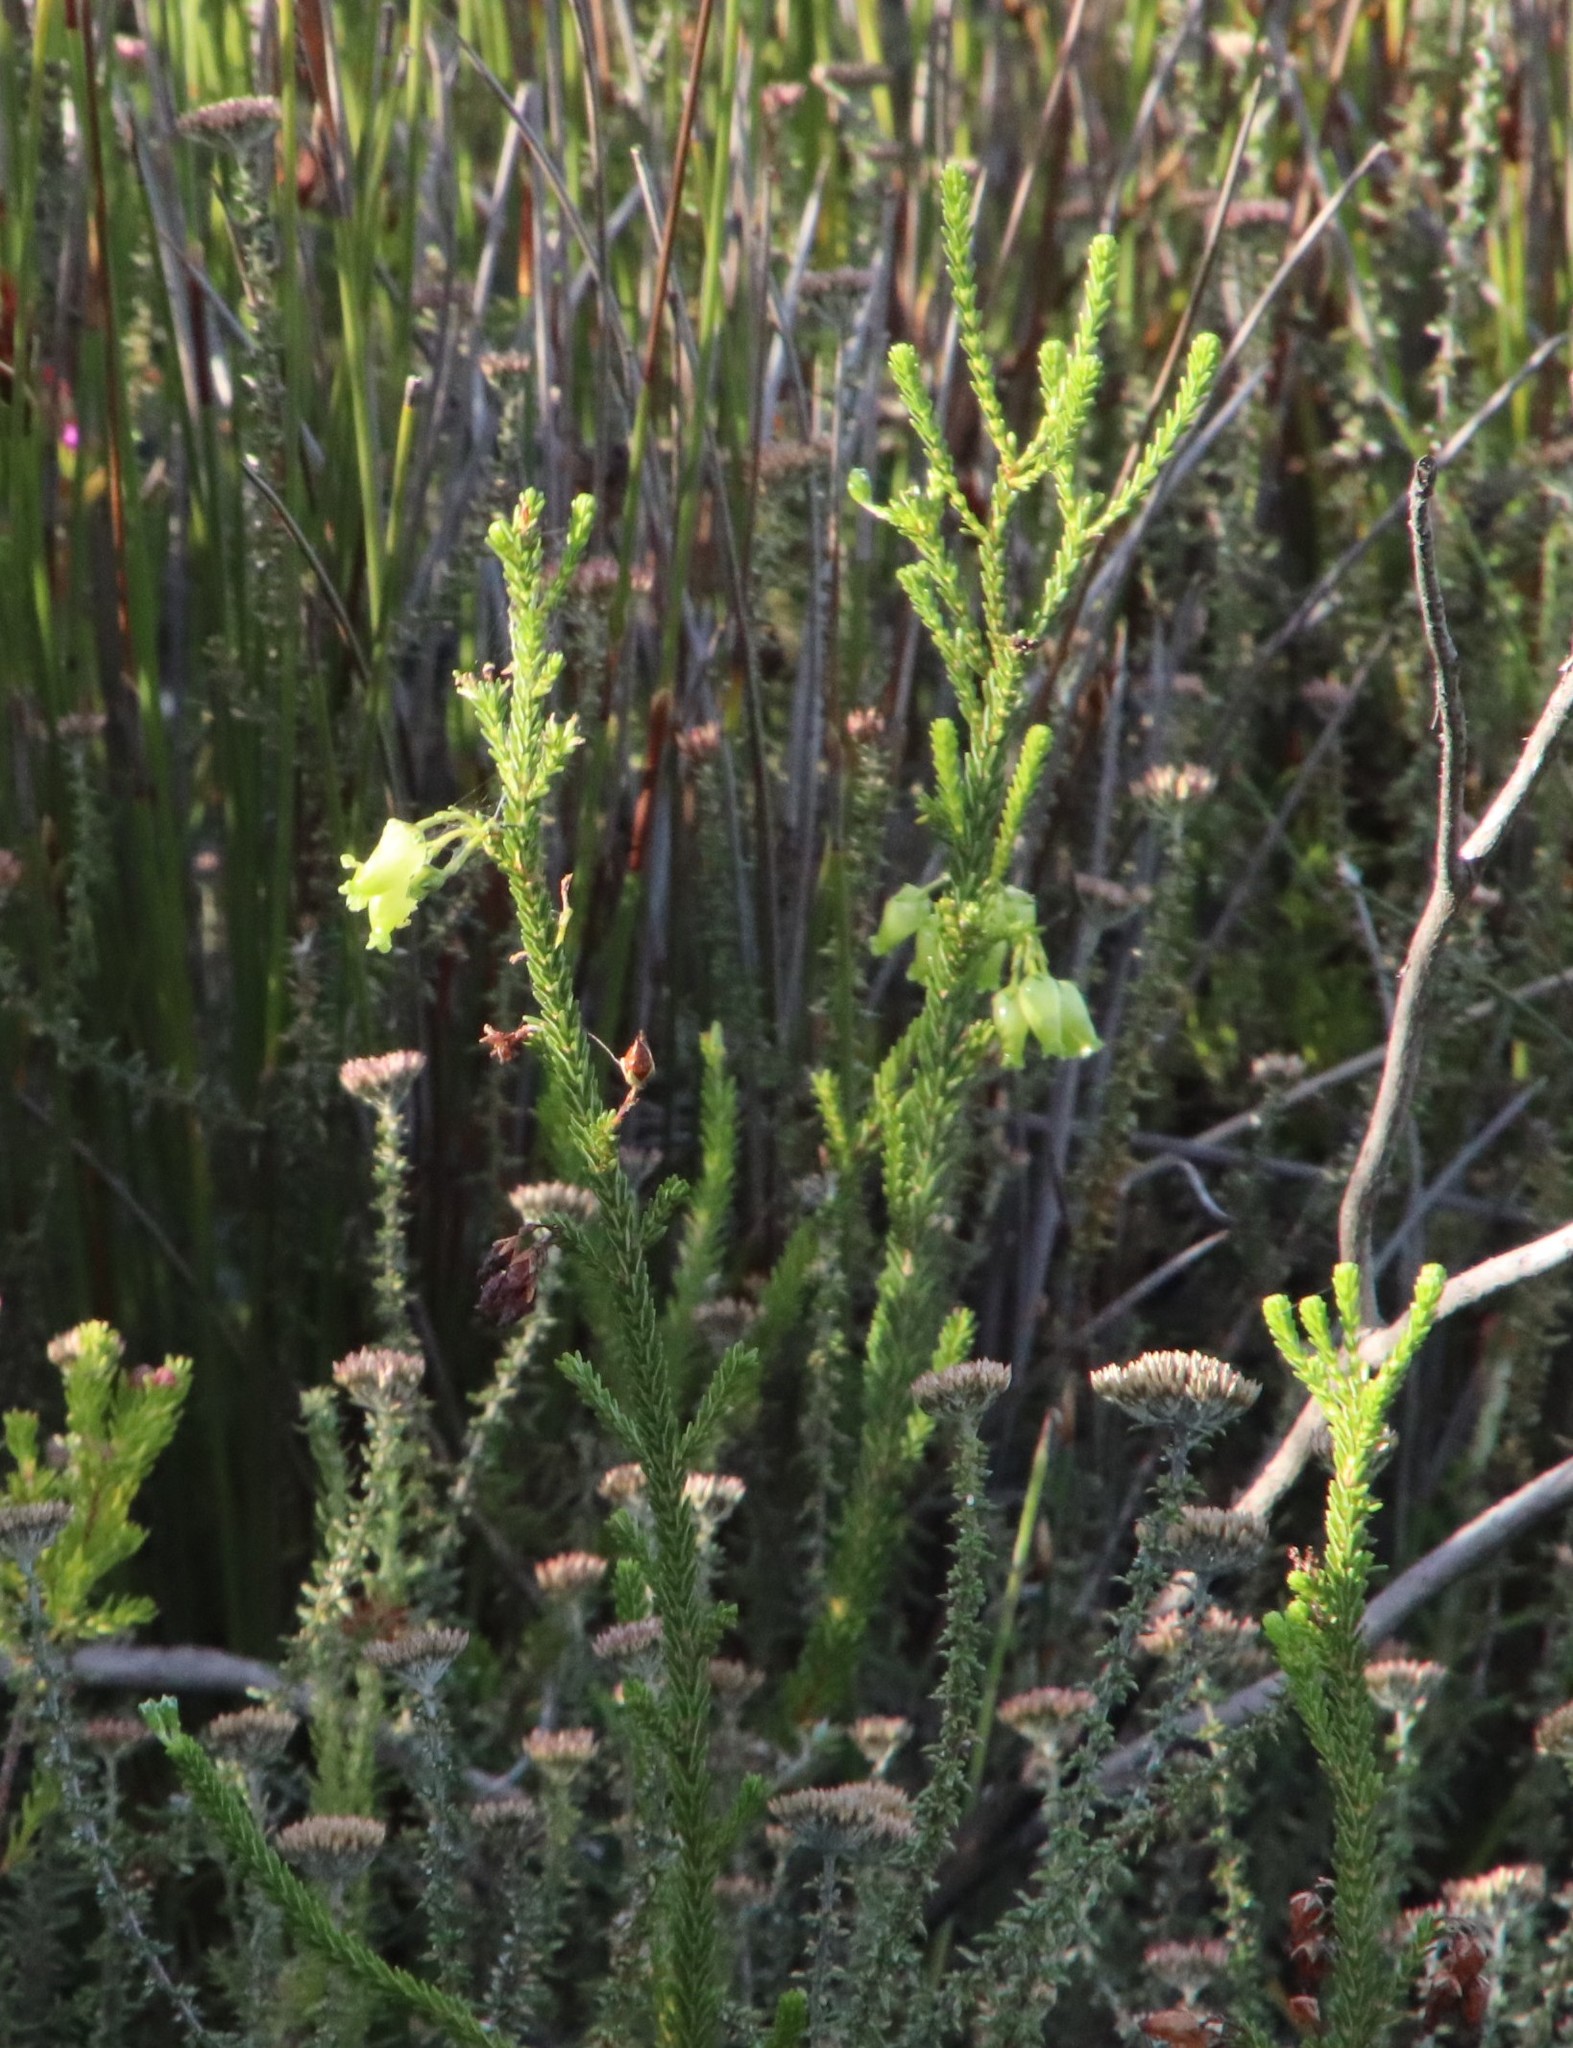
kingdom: Plantae
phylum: Tracheophyta
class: Magnoliopsida
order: Ericales
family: Ericaceae
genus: Erica
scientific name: Erica urna-viridis
